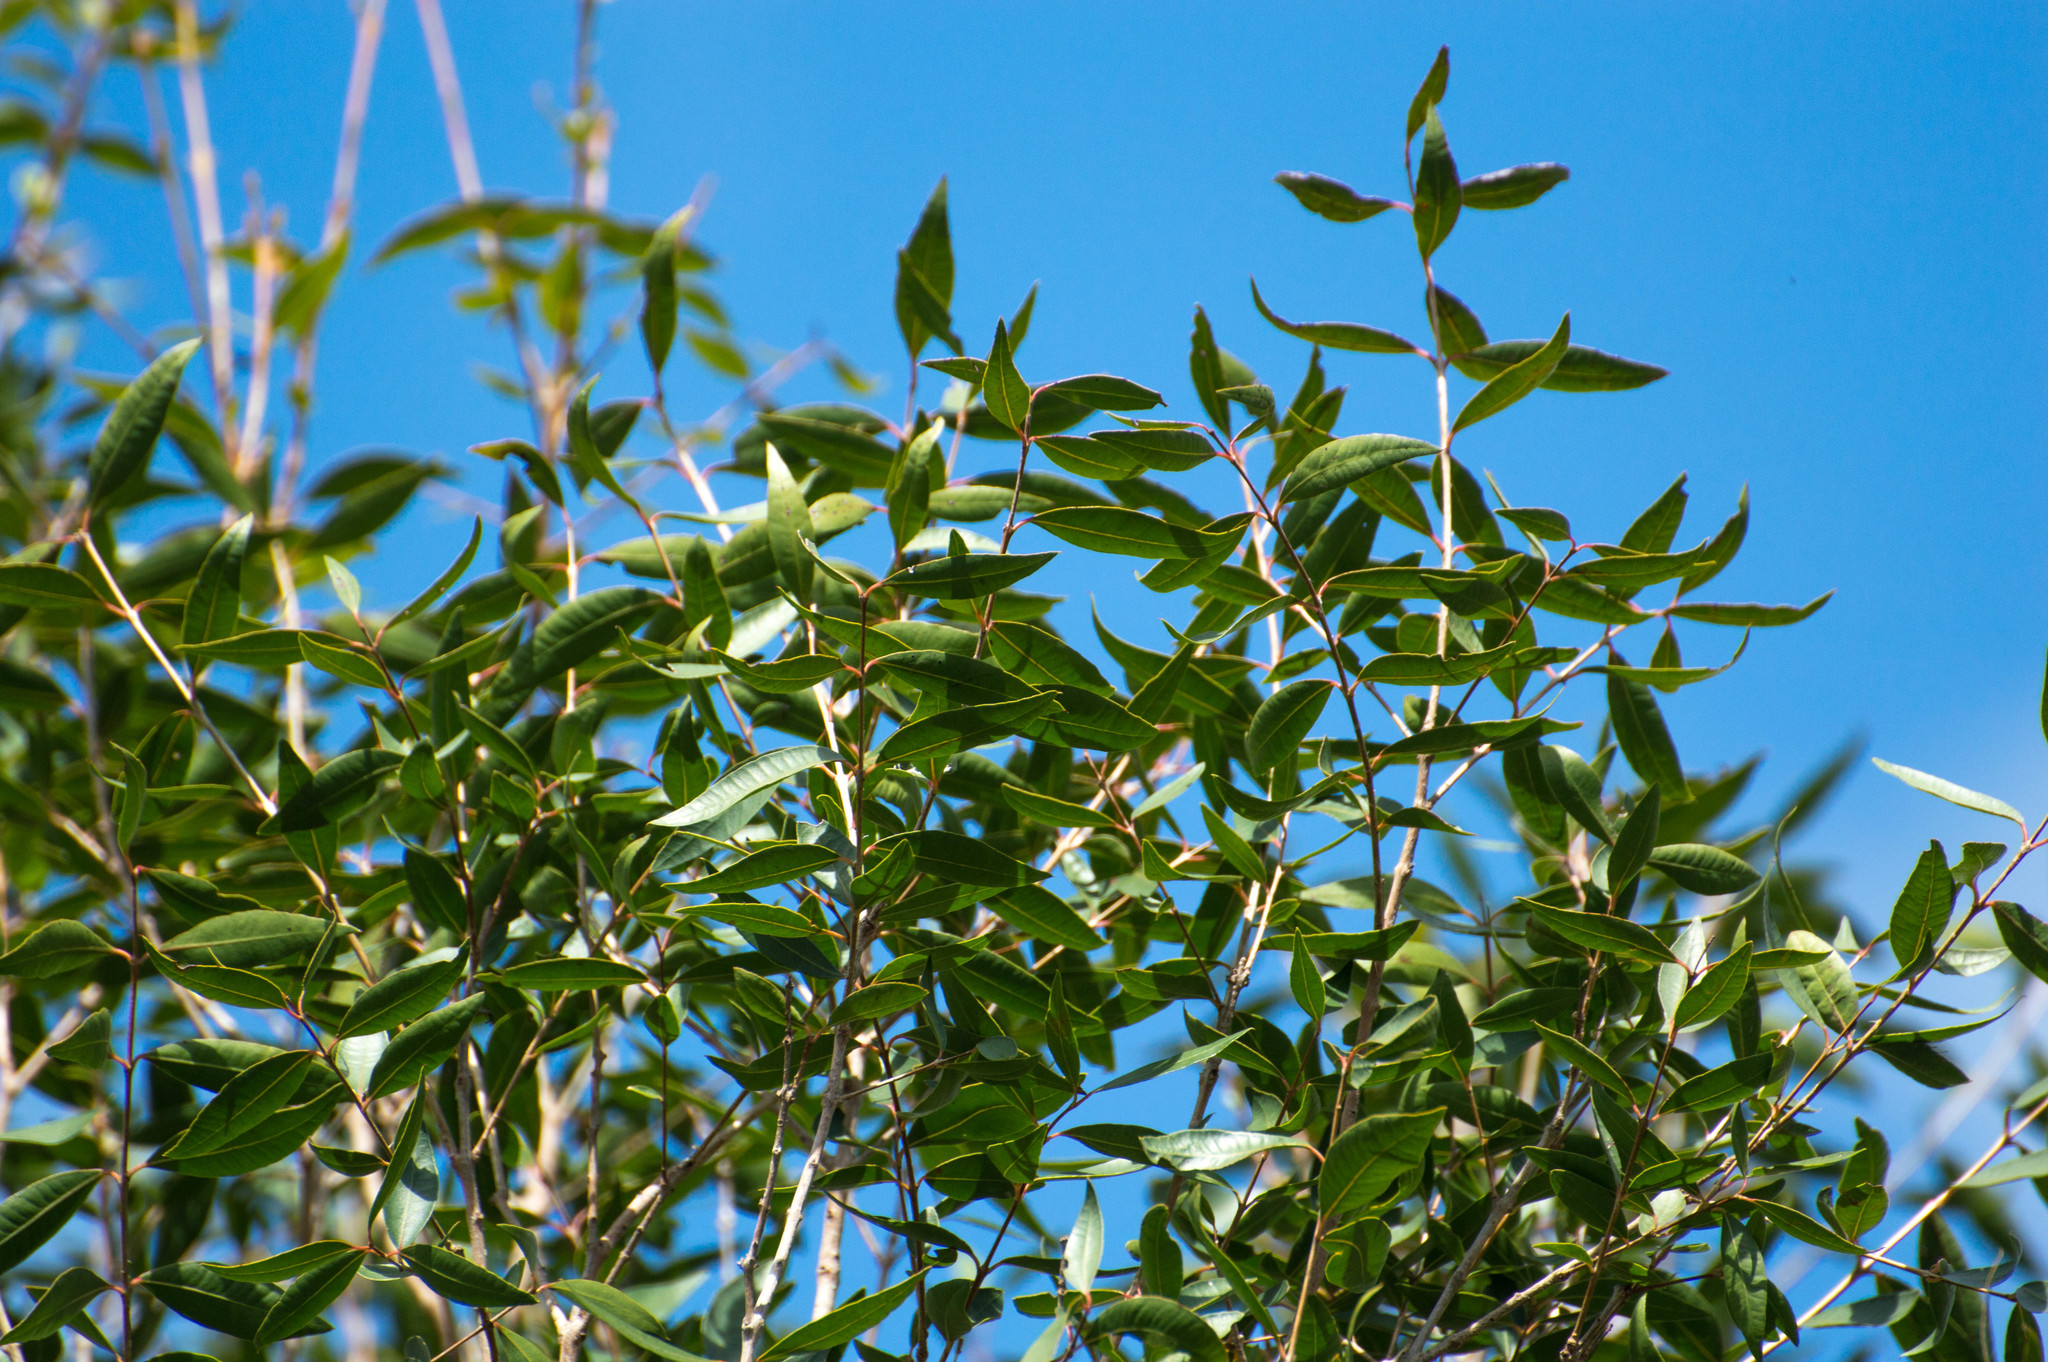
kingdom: Plantae
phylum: Tracheophyta
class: Magnoliopsida
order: Myrtales
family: Myrtaceae
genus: Blepharocalyx
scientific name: Blepharocalyx salicifolius
